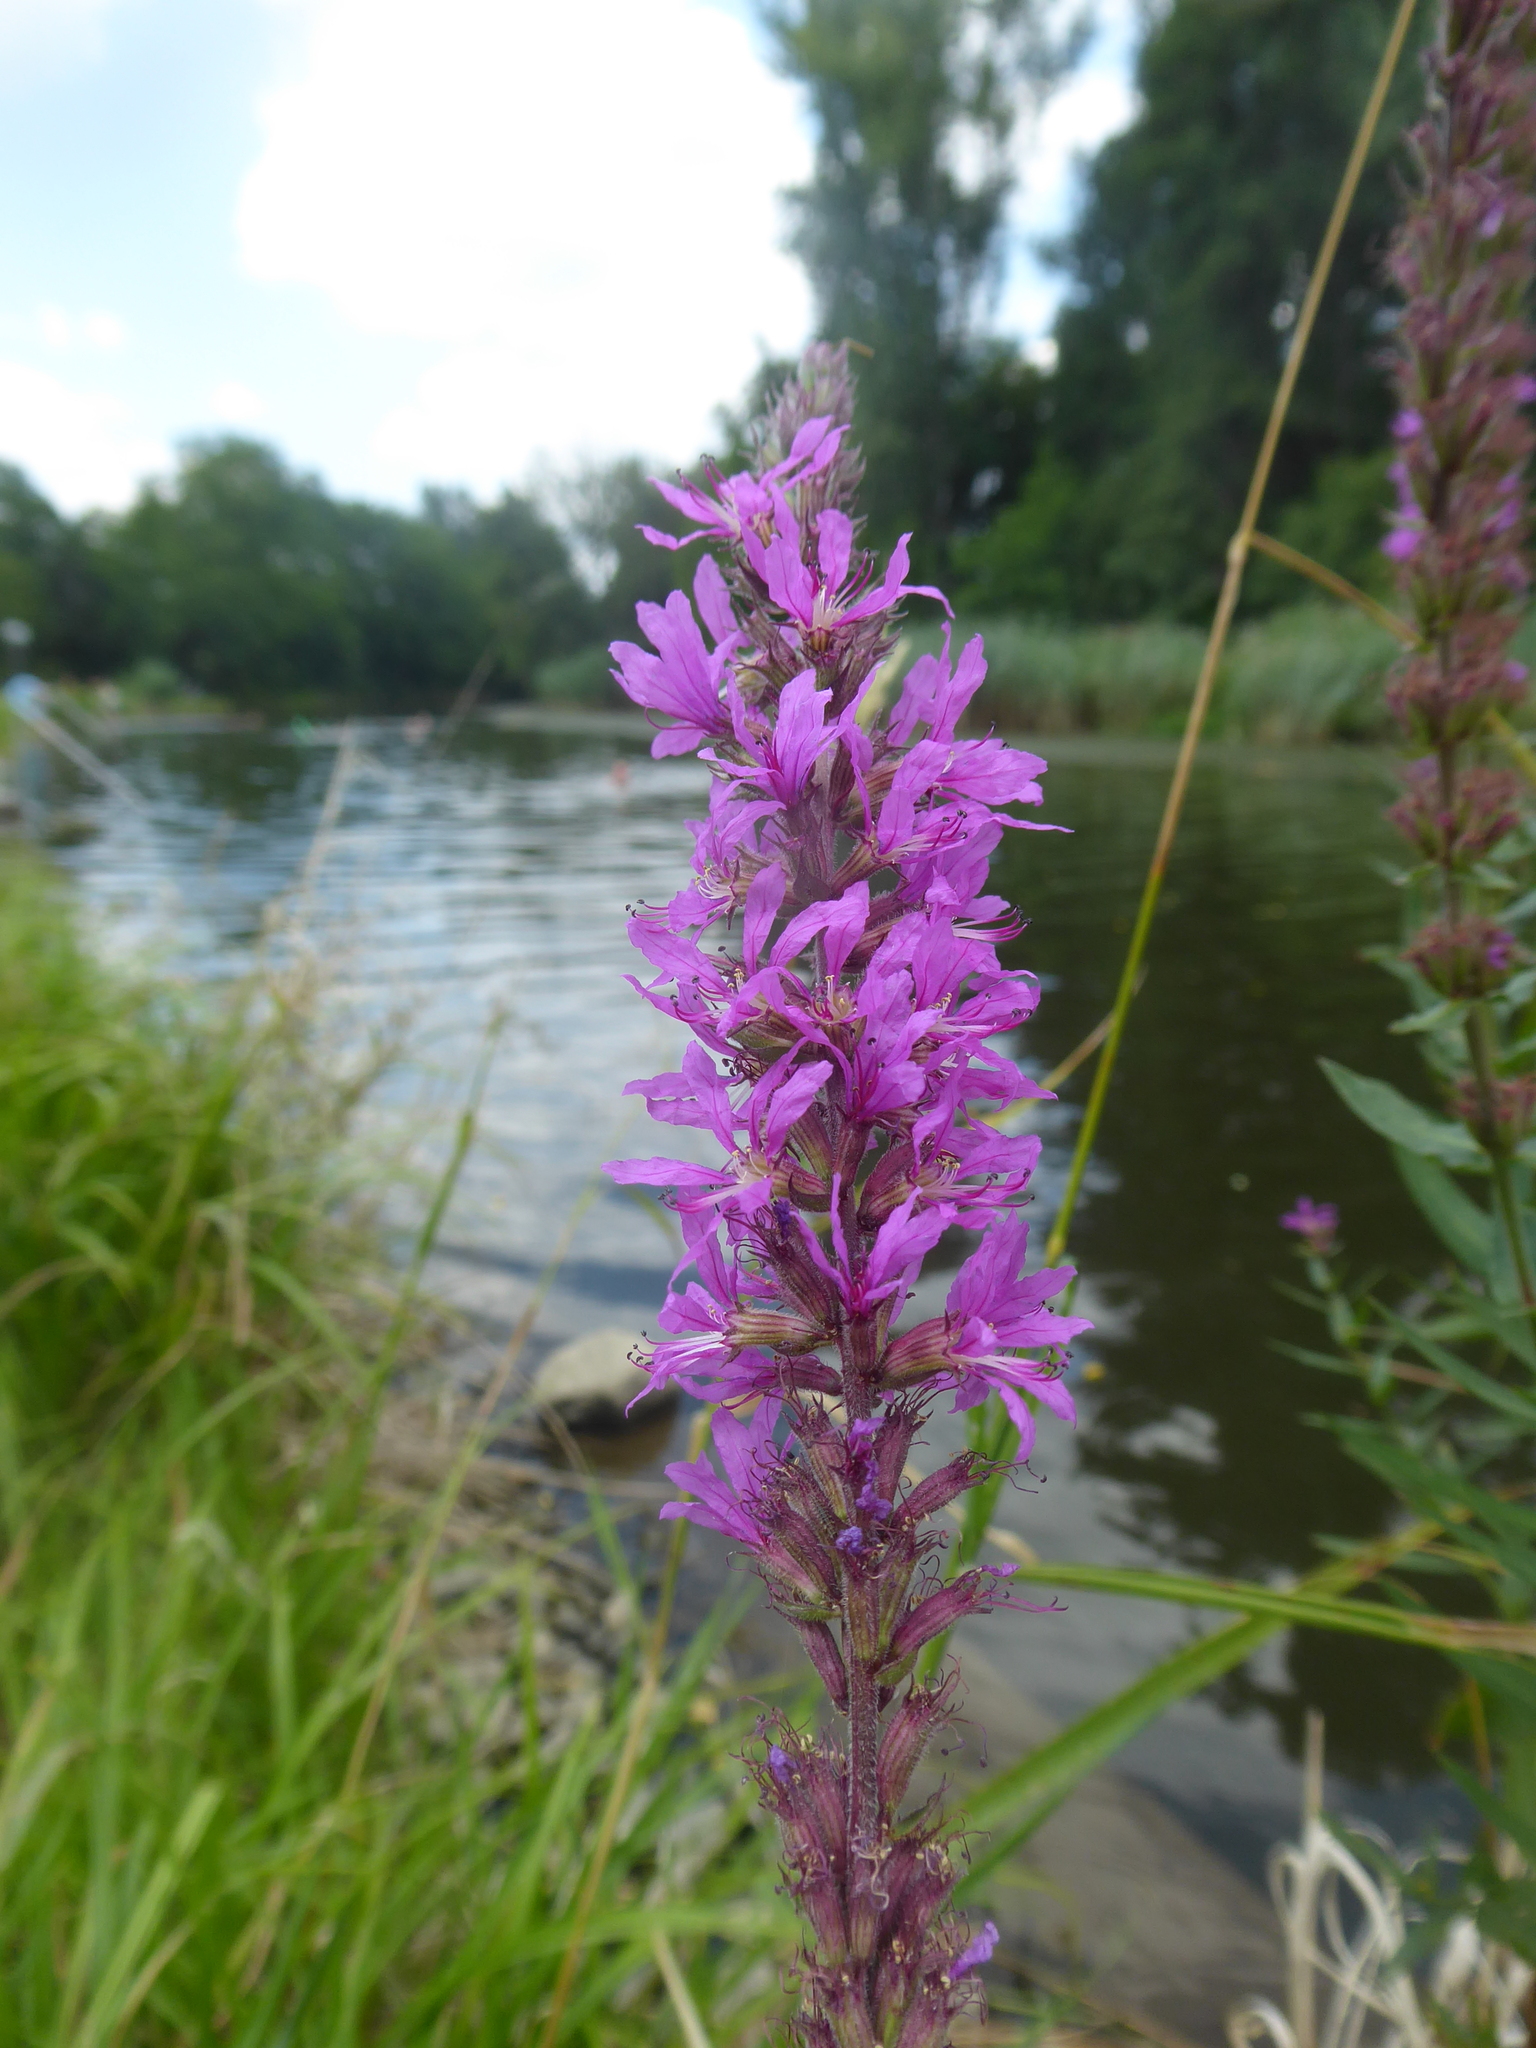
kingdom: Plantae
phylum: Tracheophyta
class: Magnoliopsida
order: Myrtales
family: Lythraceae
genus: Lythrum
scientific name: Lythrum salicaria
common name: Purple loosestrife
